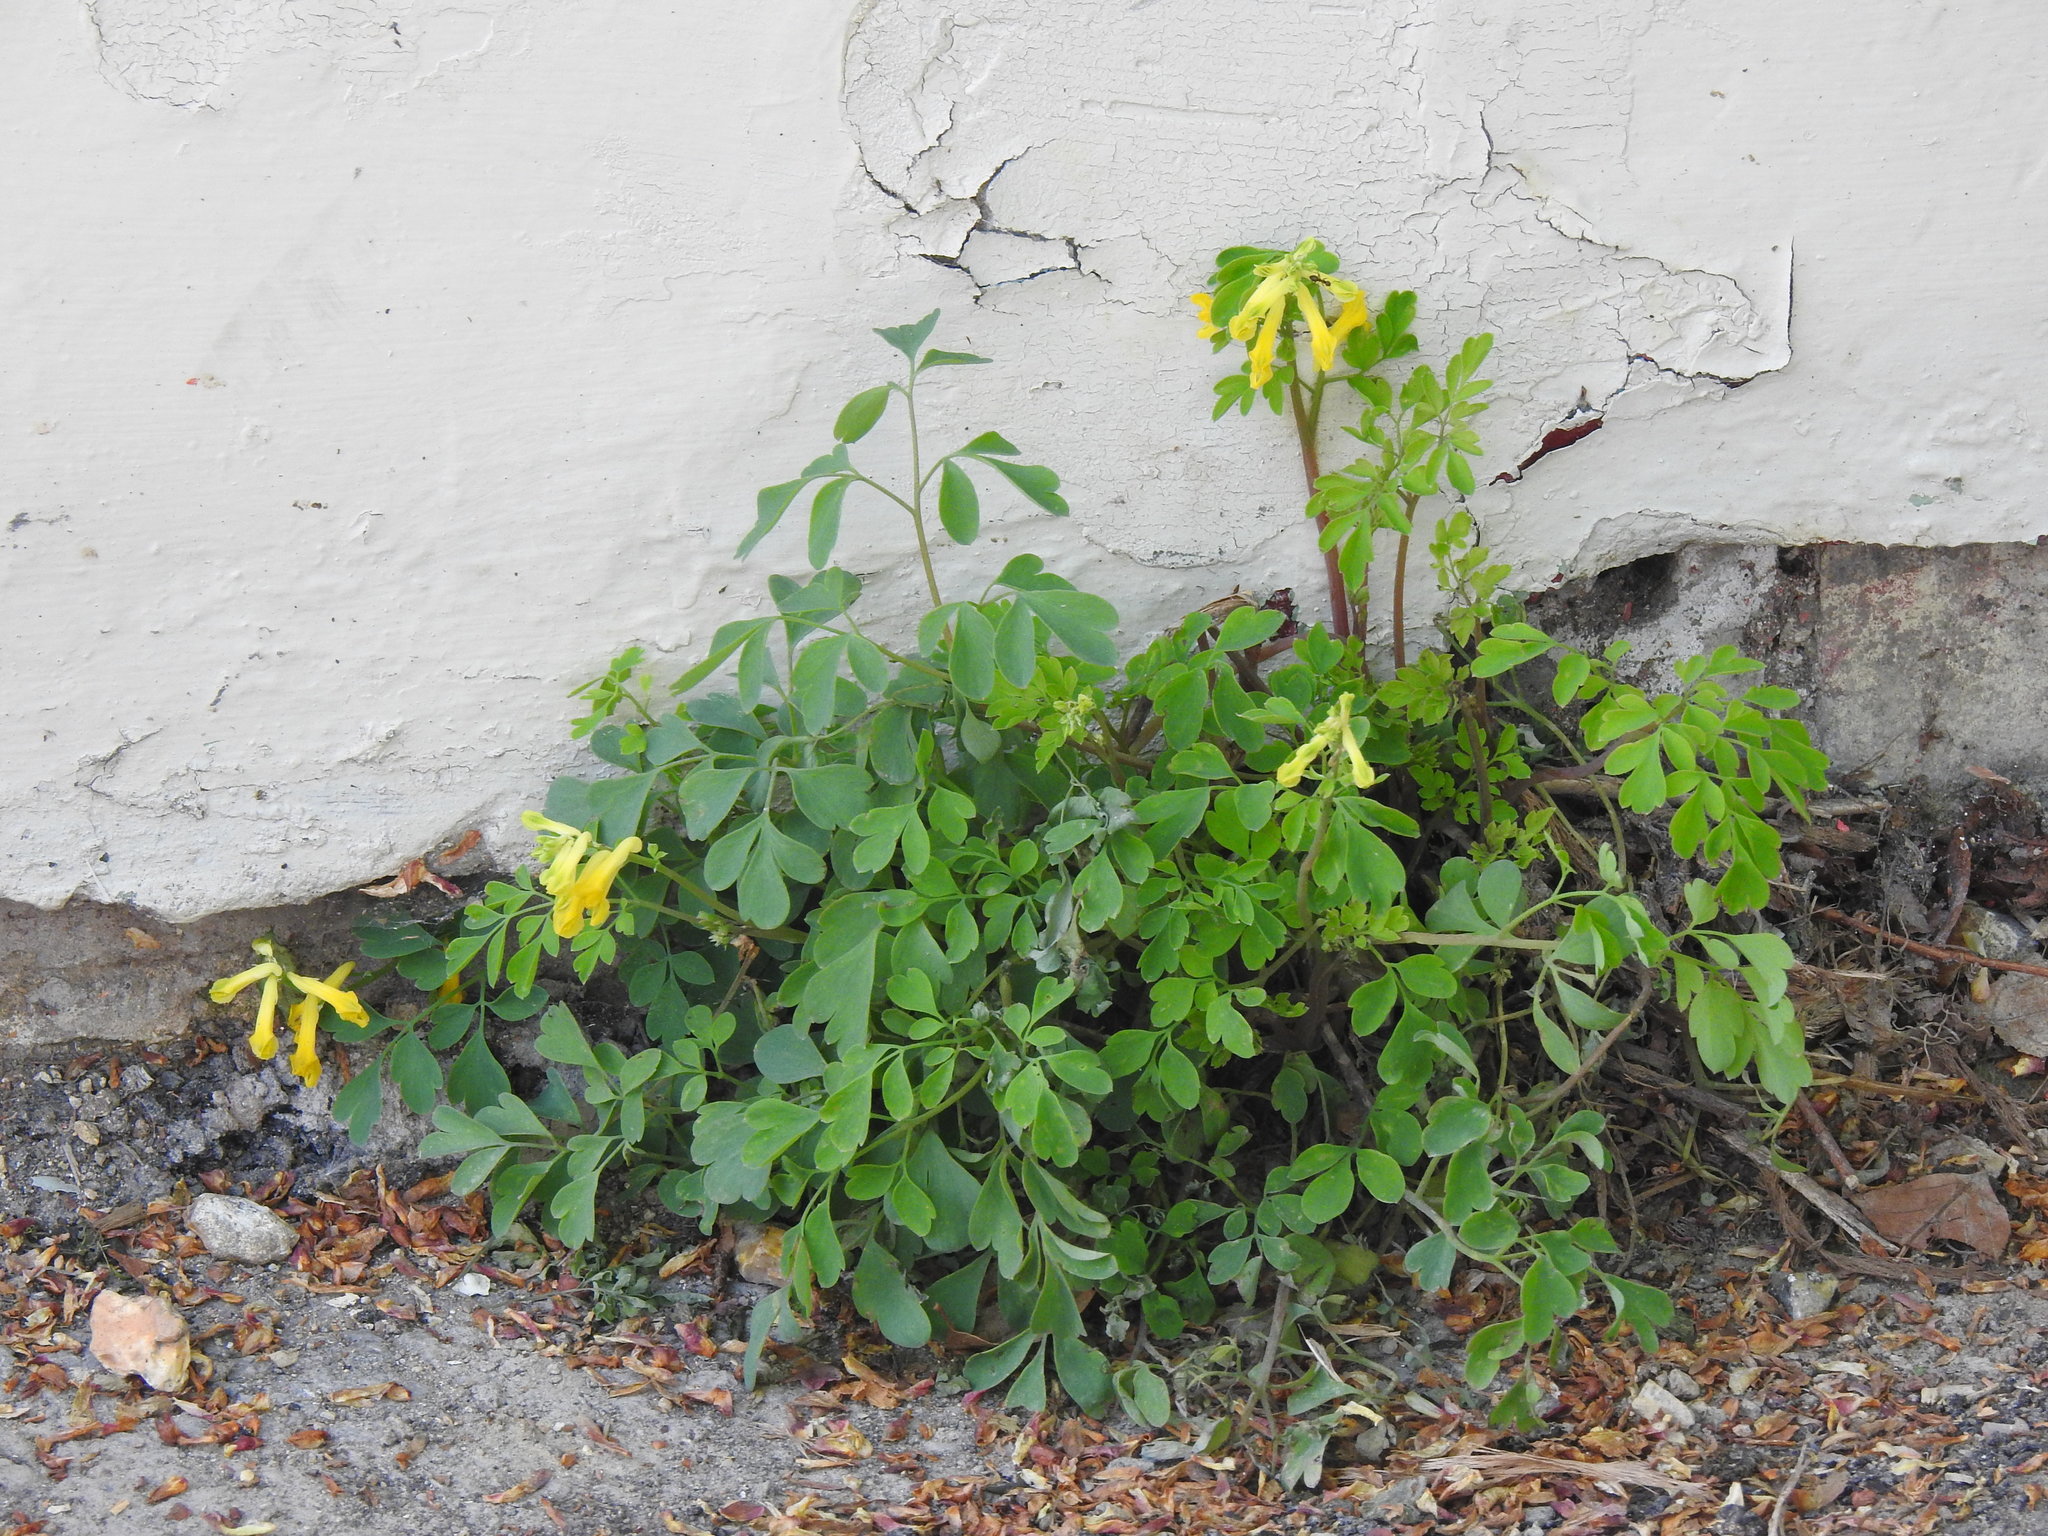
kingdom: Plantae
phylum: Tracheophyta
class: Magnoliopsida
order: Ranunculales
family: Papaveraceae
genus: Pseudofumaria
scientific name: Pseudofumaria lutea
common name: Yellow corydalis
